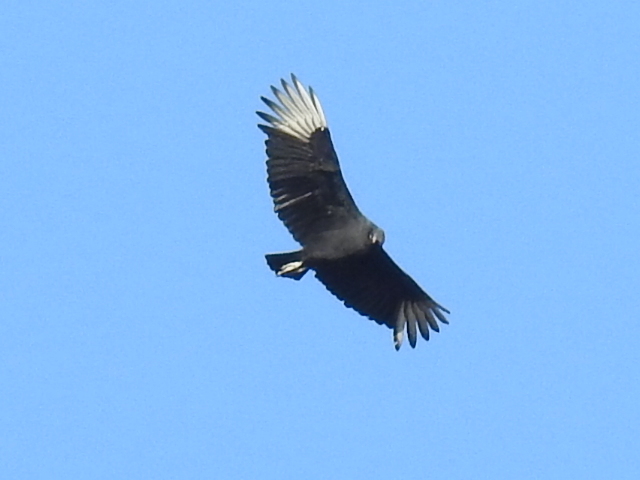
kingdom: Animalia
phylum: Chordata
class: Aves
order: Accipitriformes
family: Cathartidae
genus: Coragyps
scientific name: Coragyps atratus
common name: Black vulture
